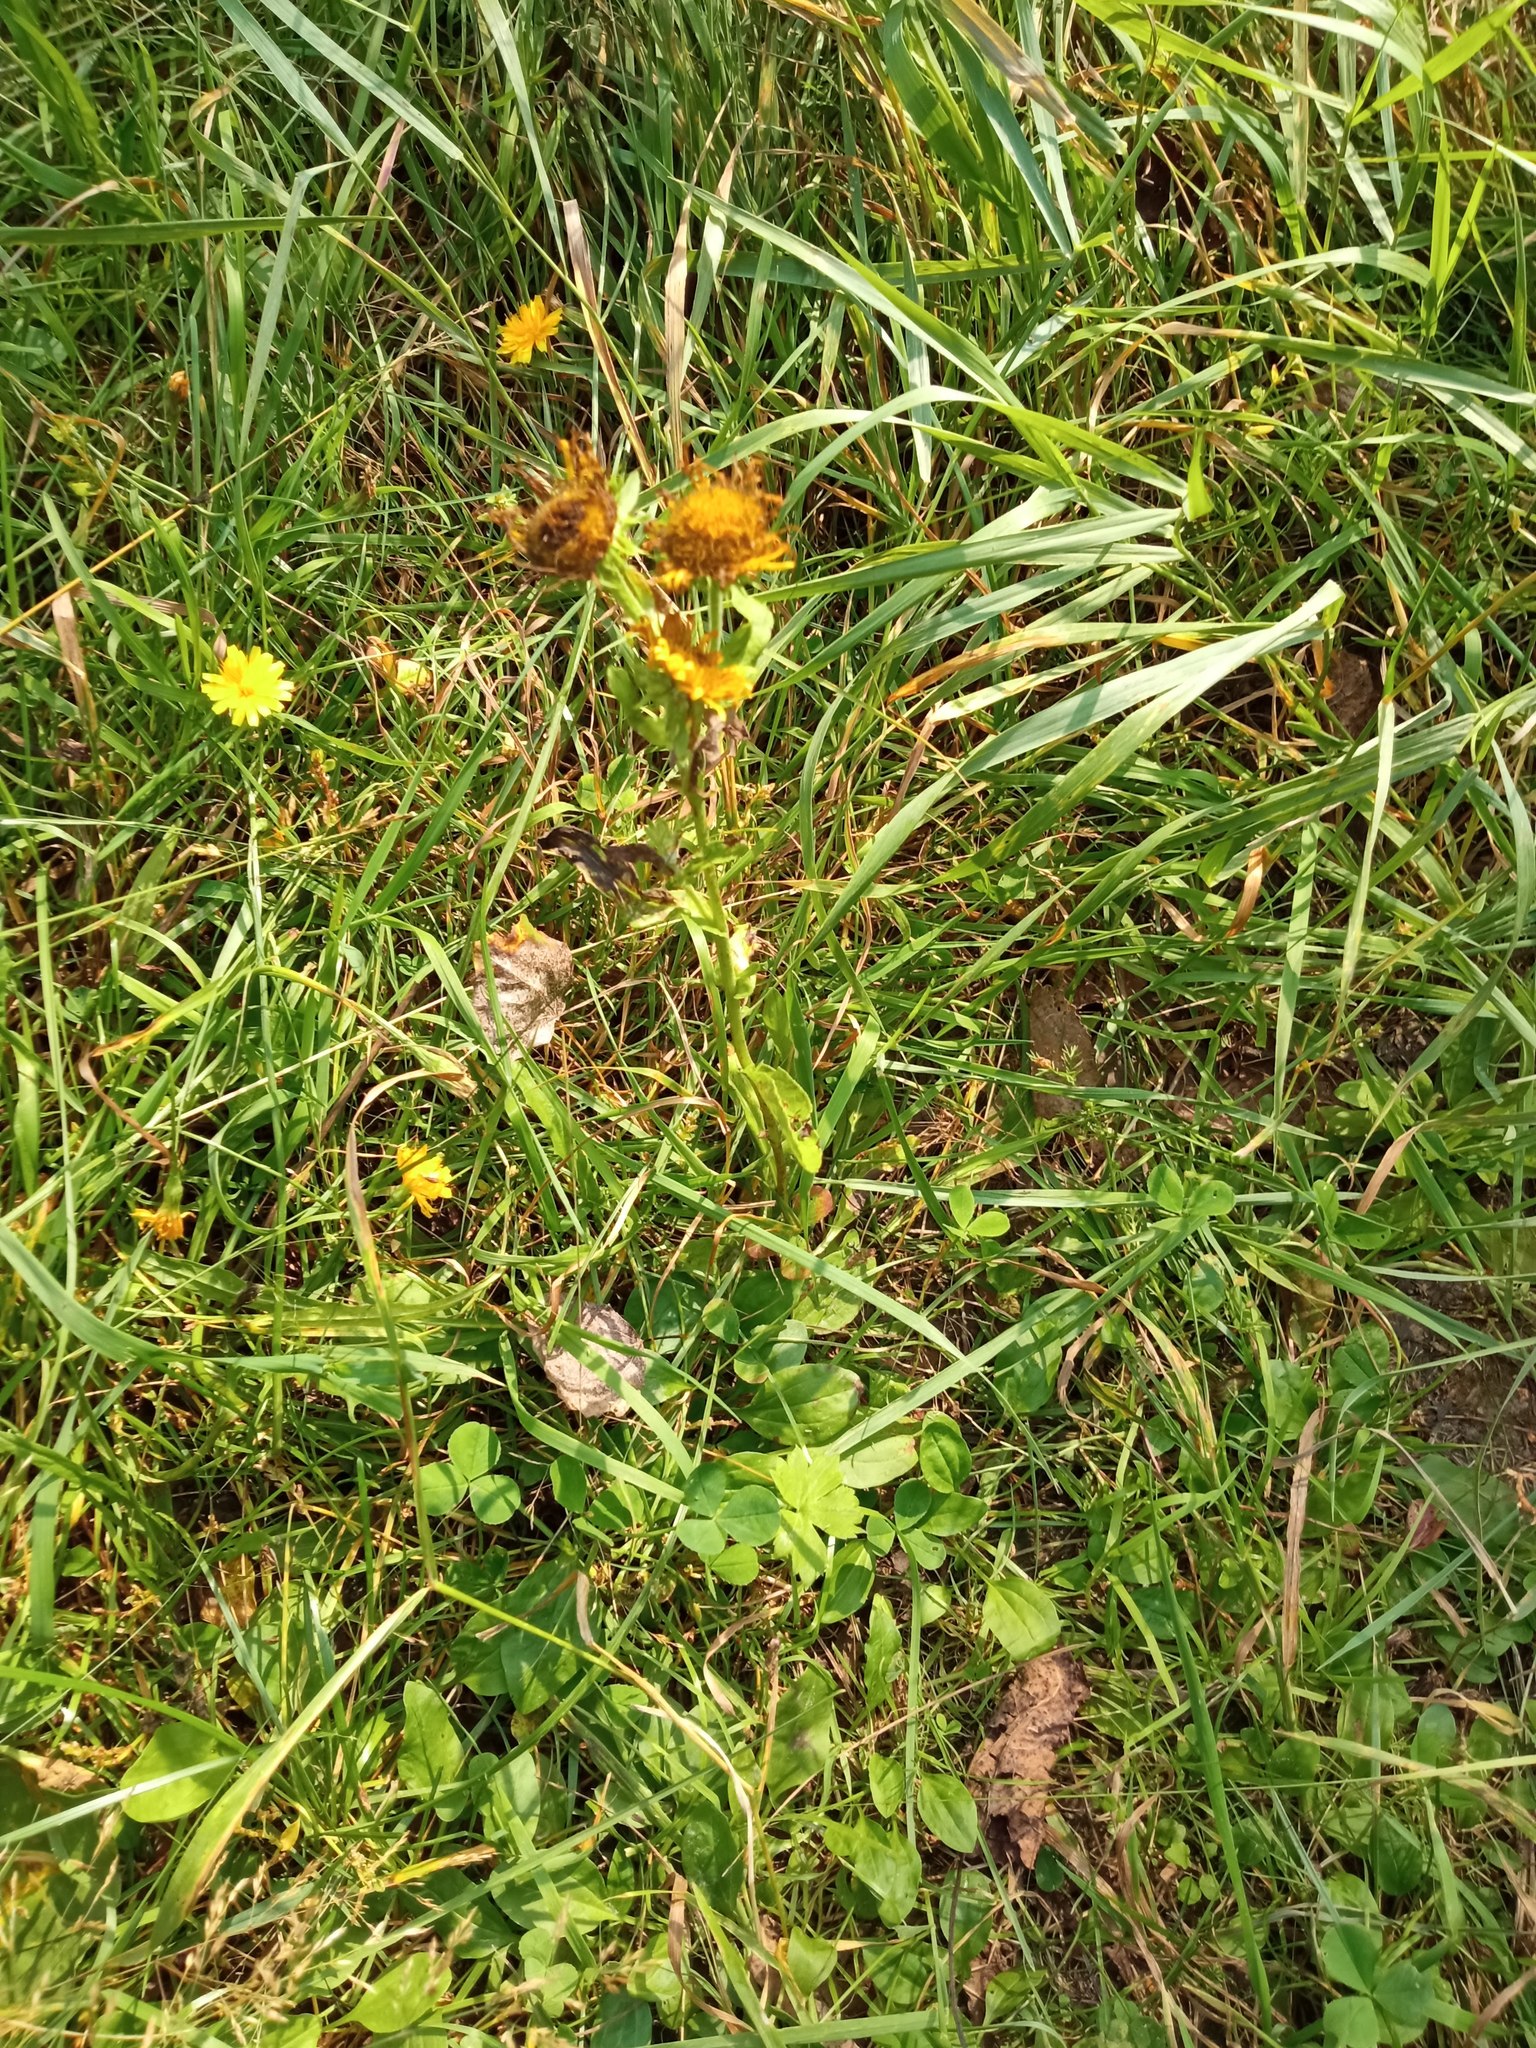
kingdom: Plantae
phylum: Tracheophyta
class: Magnoliopsida
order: Asterales
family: Asteraceae
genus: Pentanema
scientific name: Pentanema britannicum
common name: British elecampane
